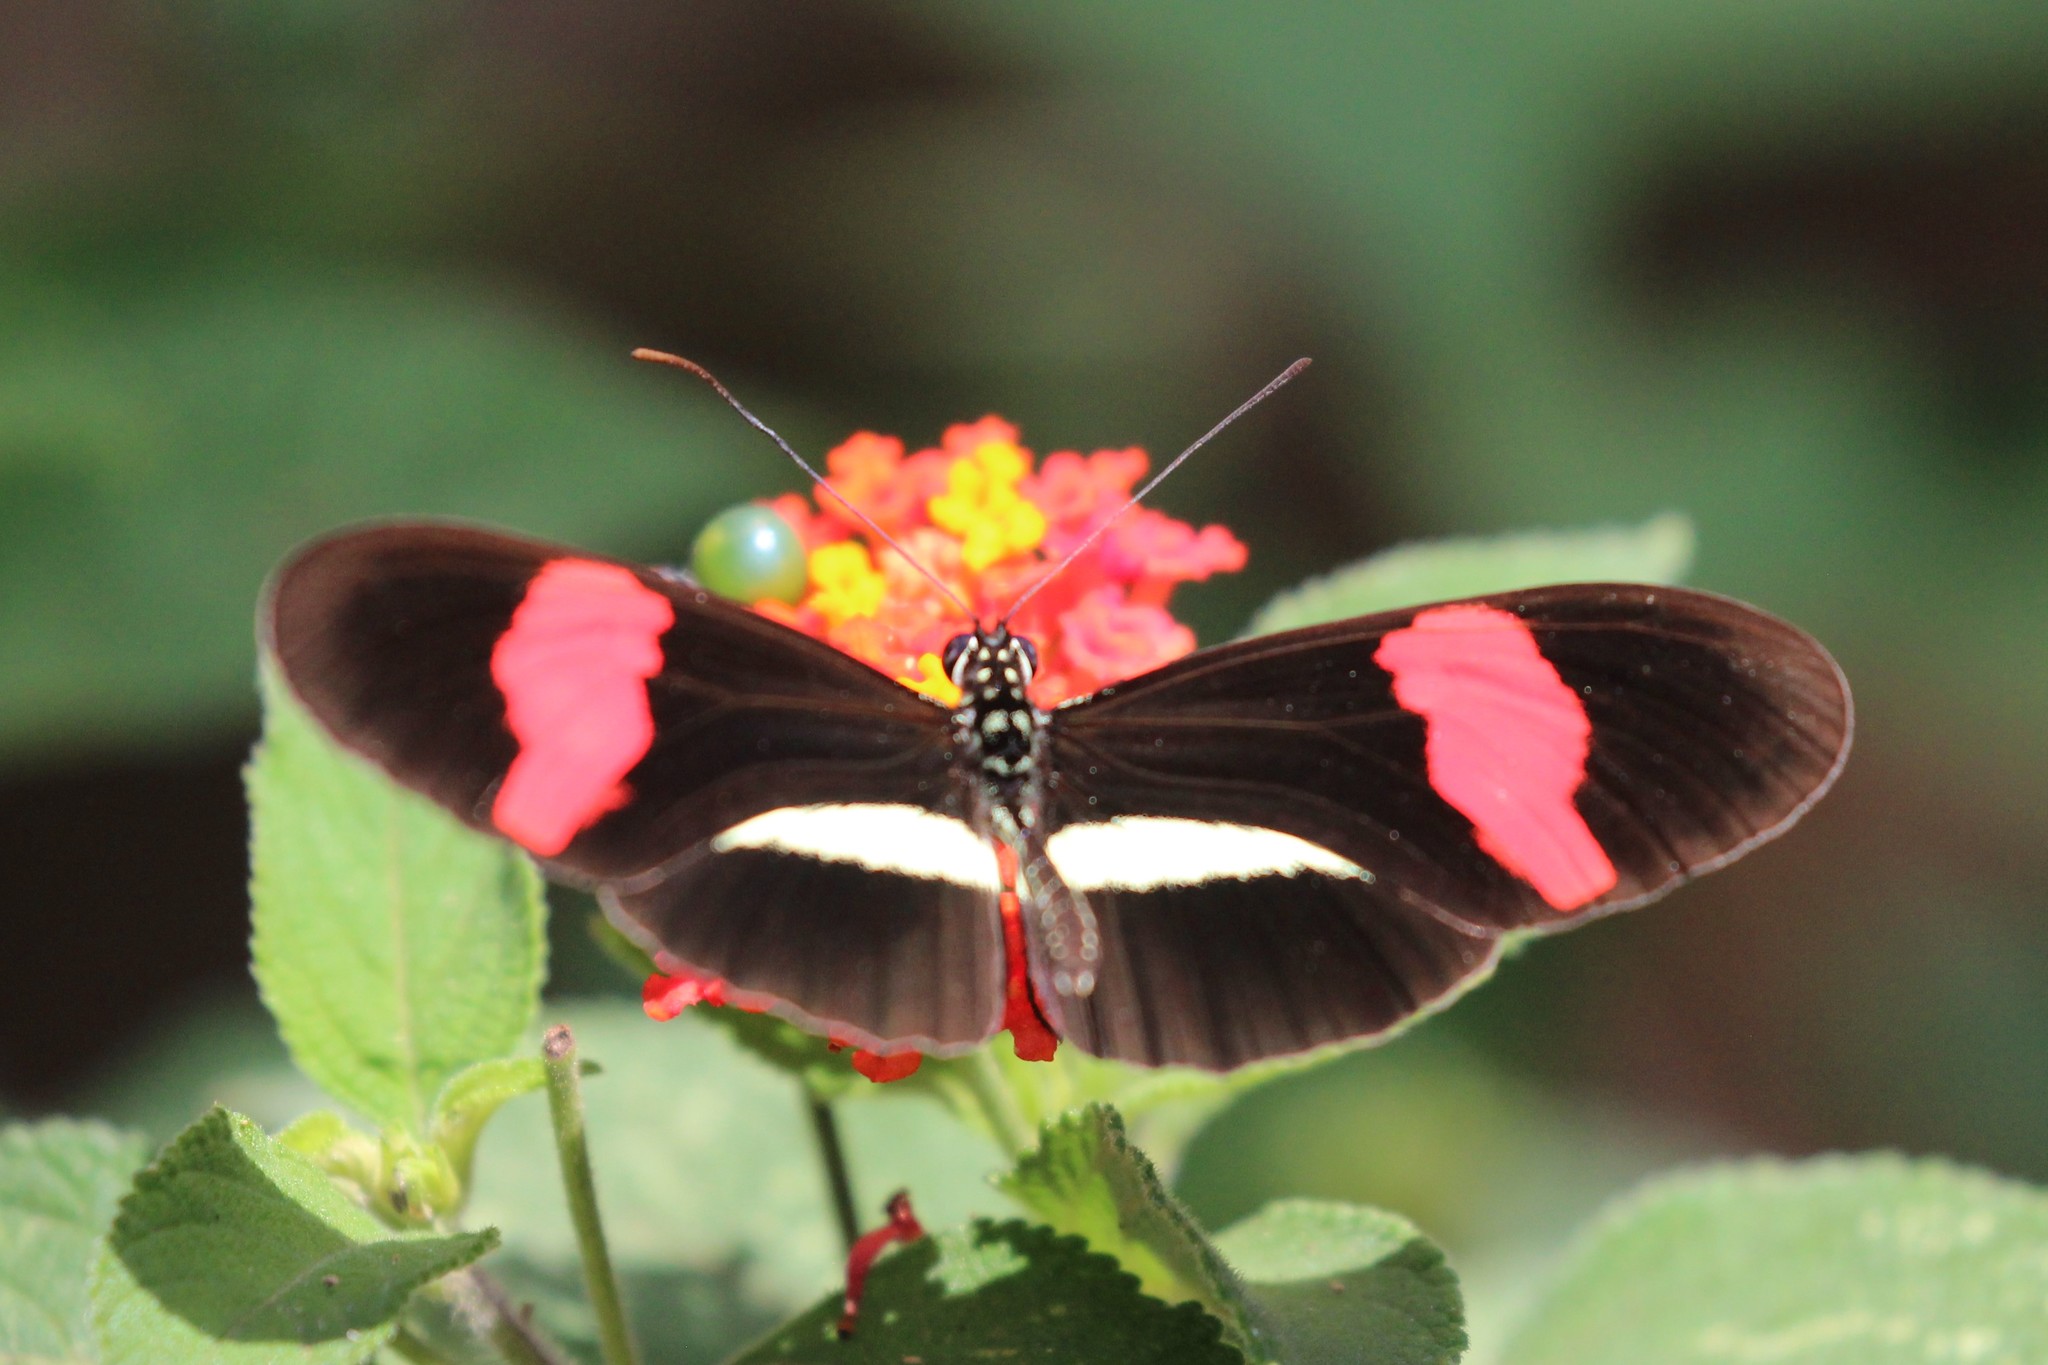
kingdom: Animalia
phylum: Arthropoda
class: Insecta
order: Lepidoptera
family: Nymphalidae
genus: Heliconius
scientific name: Heliconius erato
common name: Common patch longwing
